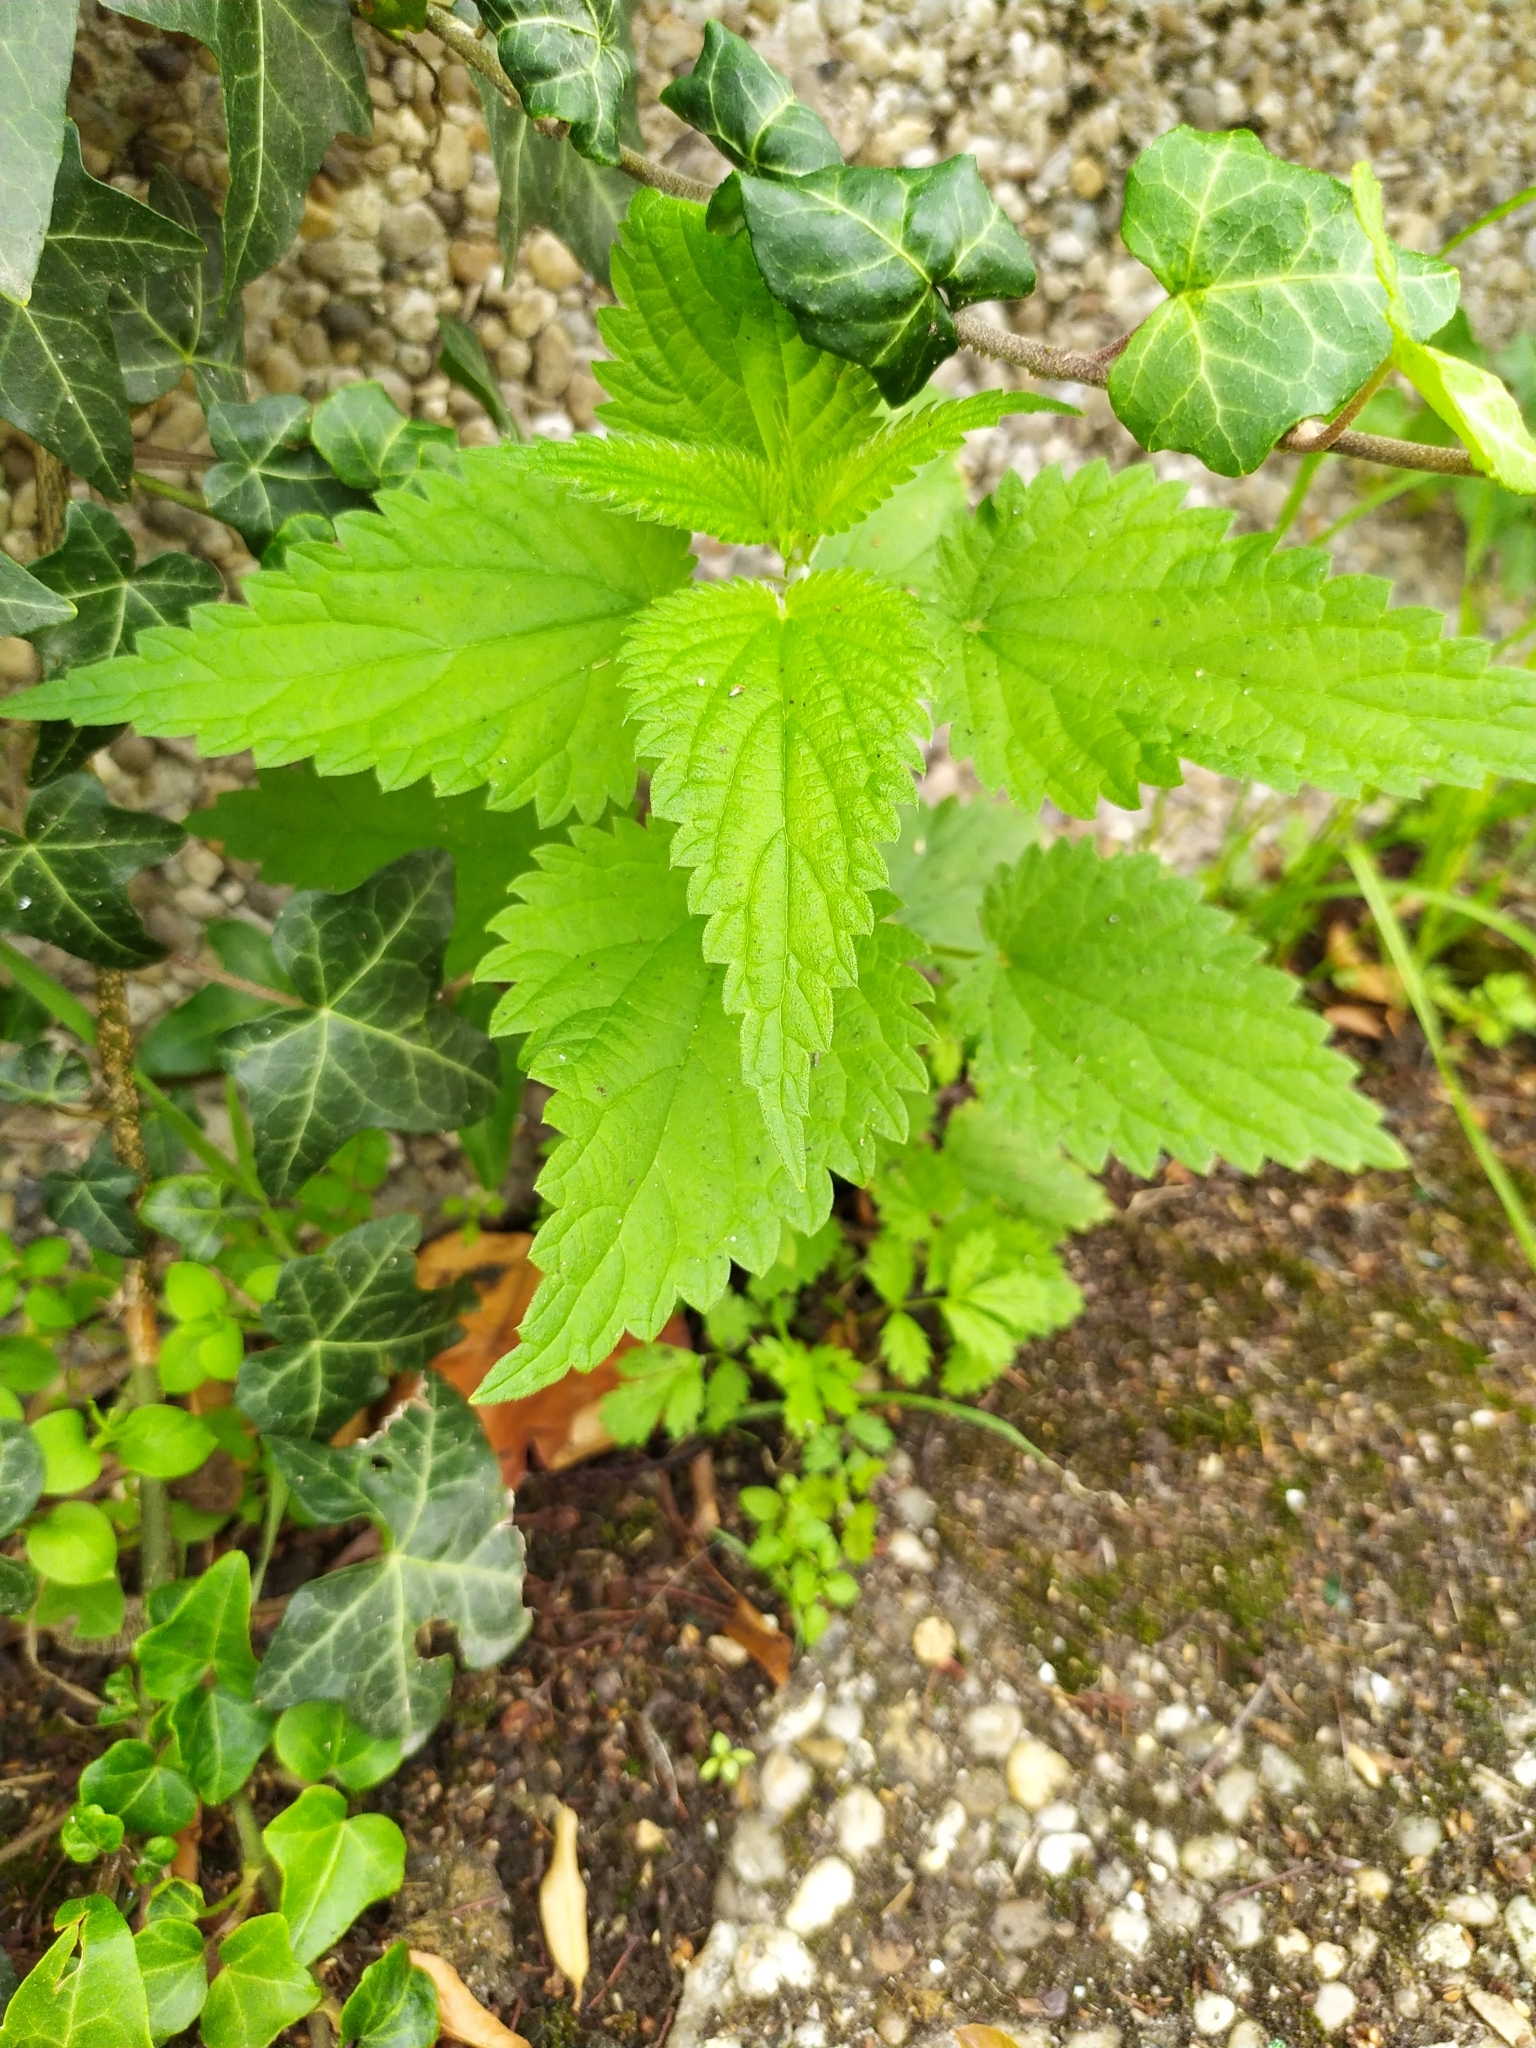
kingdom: Plantae
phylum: Tracheophyta
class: Magnoliopsida
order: Rosales
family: Urticaceae
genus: Urtica
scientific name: Urtica dioica
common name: Common nettle
